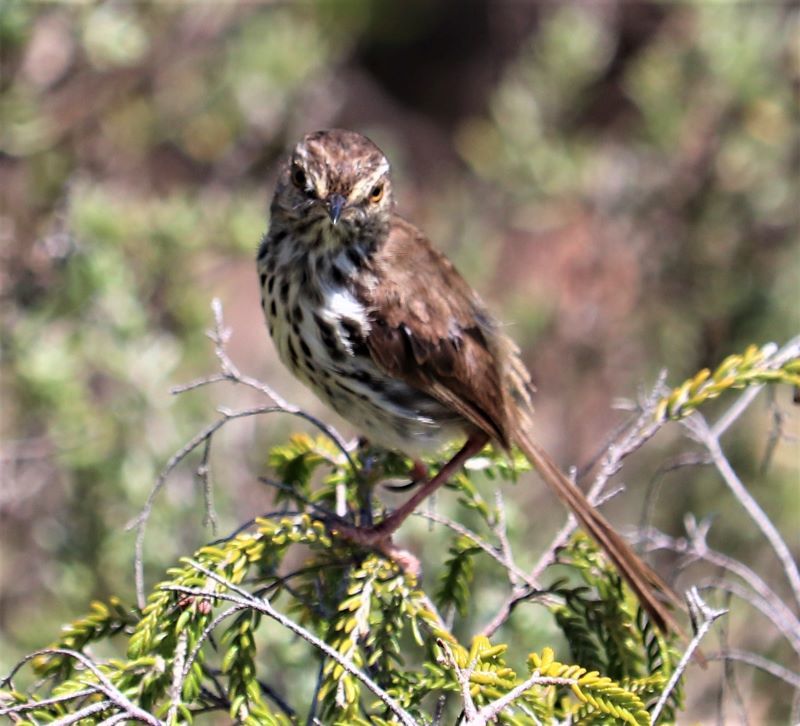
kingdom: Animalia
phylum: Chordata
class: Aves
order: Passeriformes
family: Cisticolidae
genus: Prinia
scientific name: Prinia maculosa
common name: Karoo prinia
